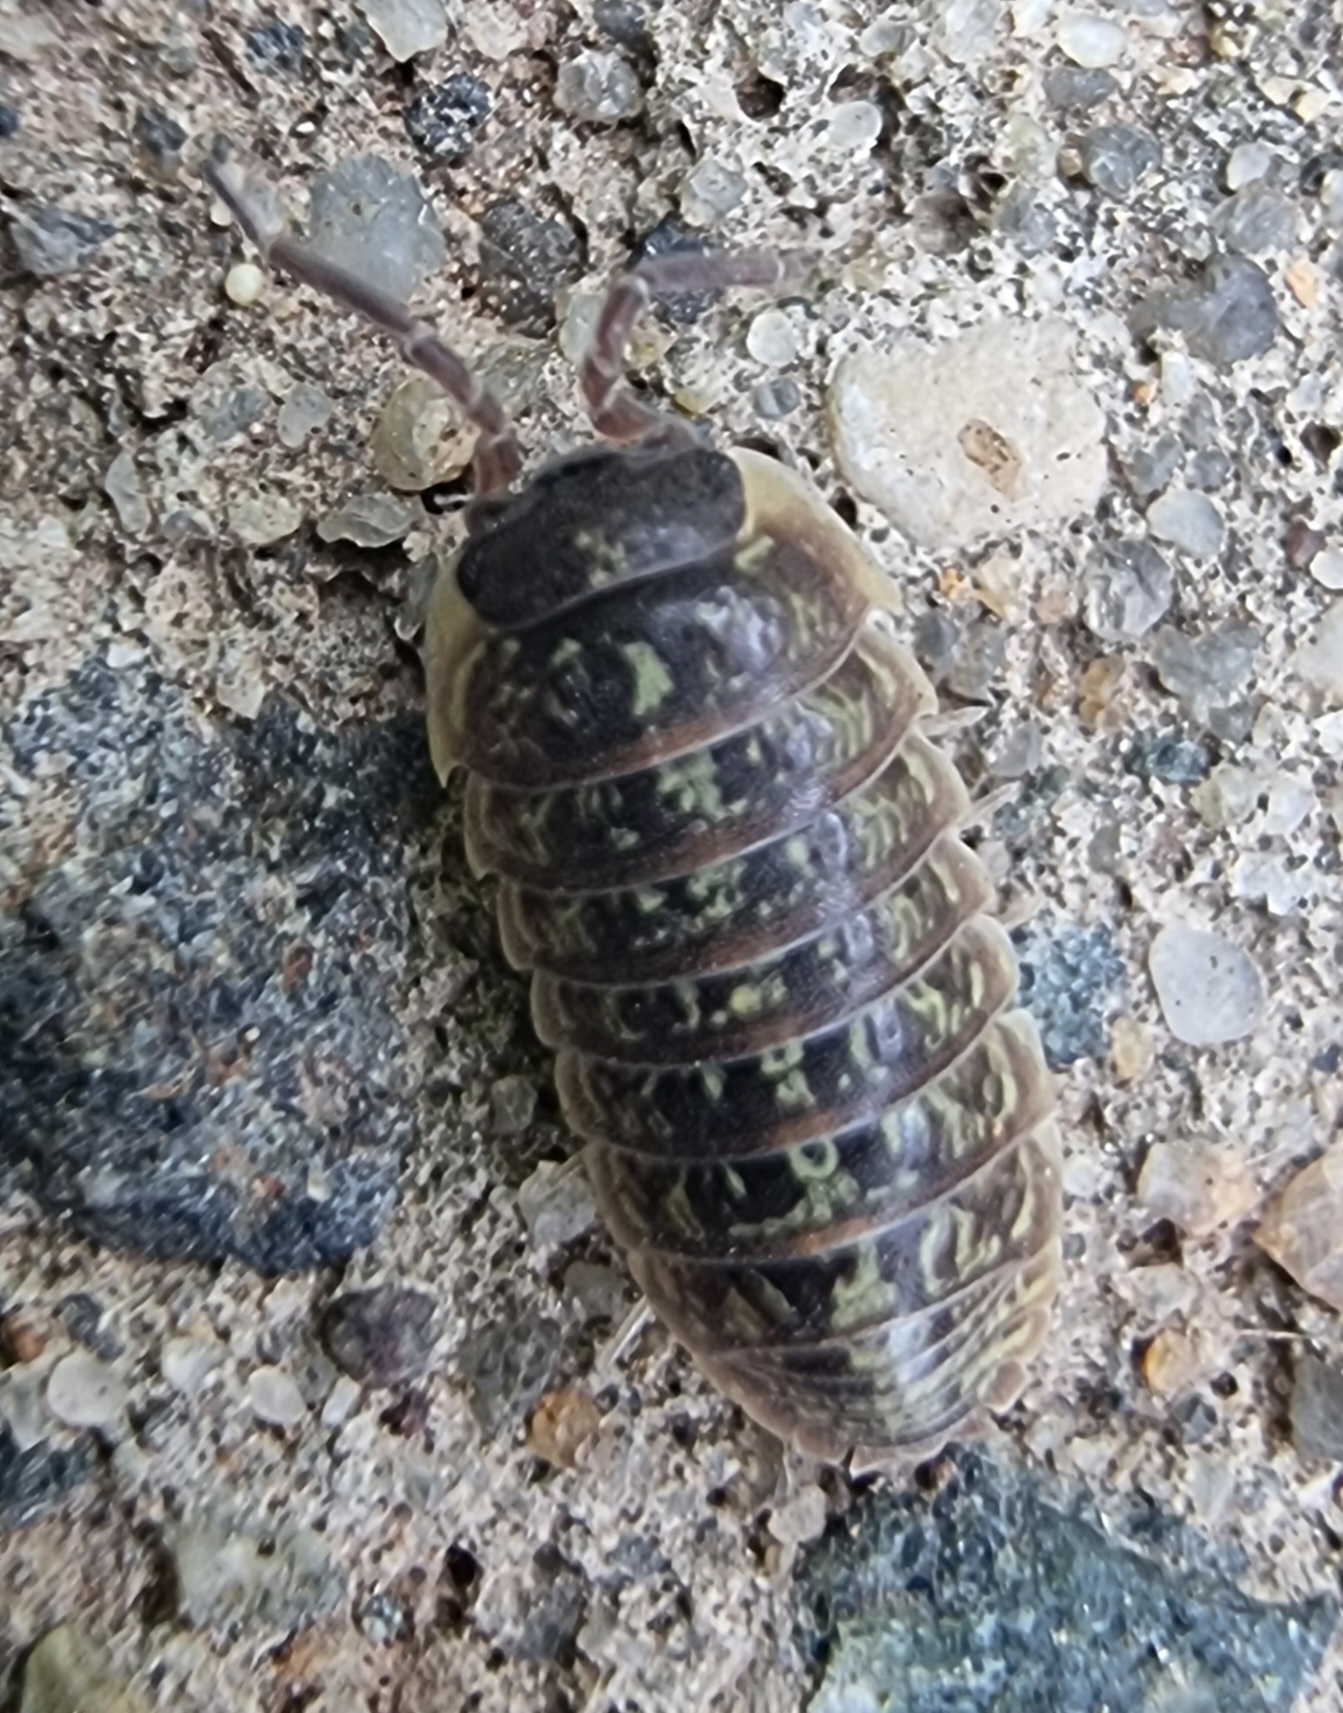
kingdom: Animalia
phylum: Arthropoda
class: Malacostraca
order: Isopoda
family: Armadillidiidae
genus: Armadillidium
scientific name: Armadillidium versicolor
